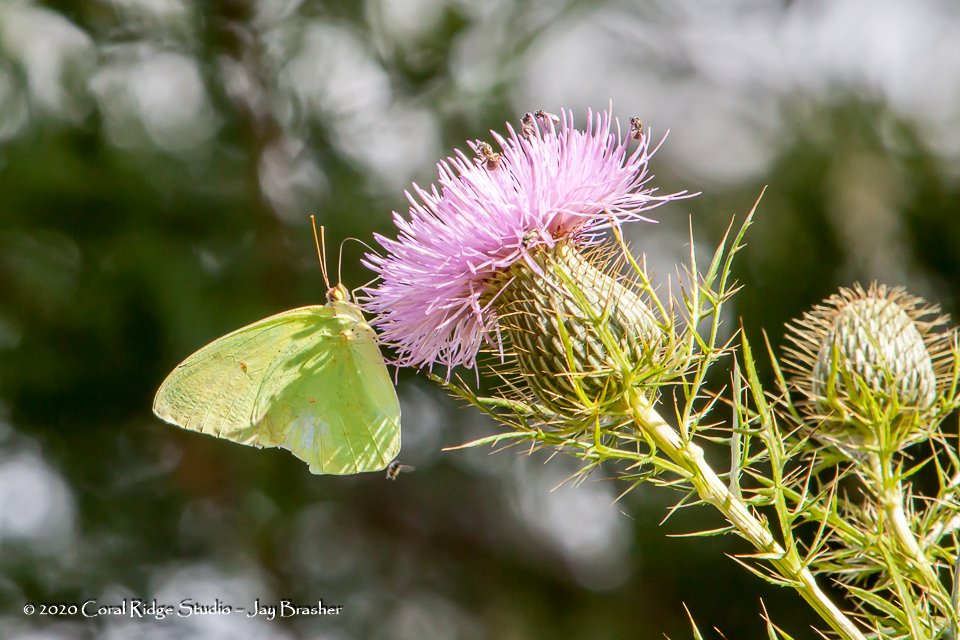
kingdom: Animalia
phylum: Arthropoda
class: Insecta
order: Lepidoptera
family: Pieridae
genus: Phoebis
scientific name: Phoebis sennae
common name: Cloudless sulphur
